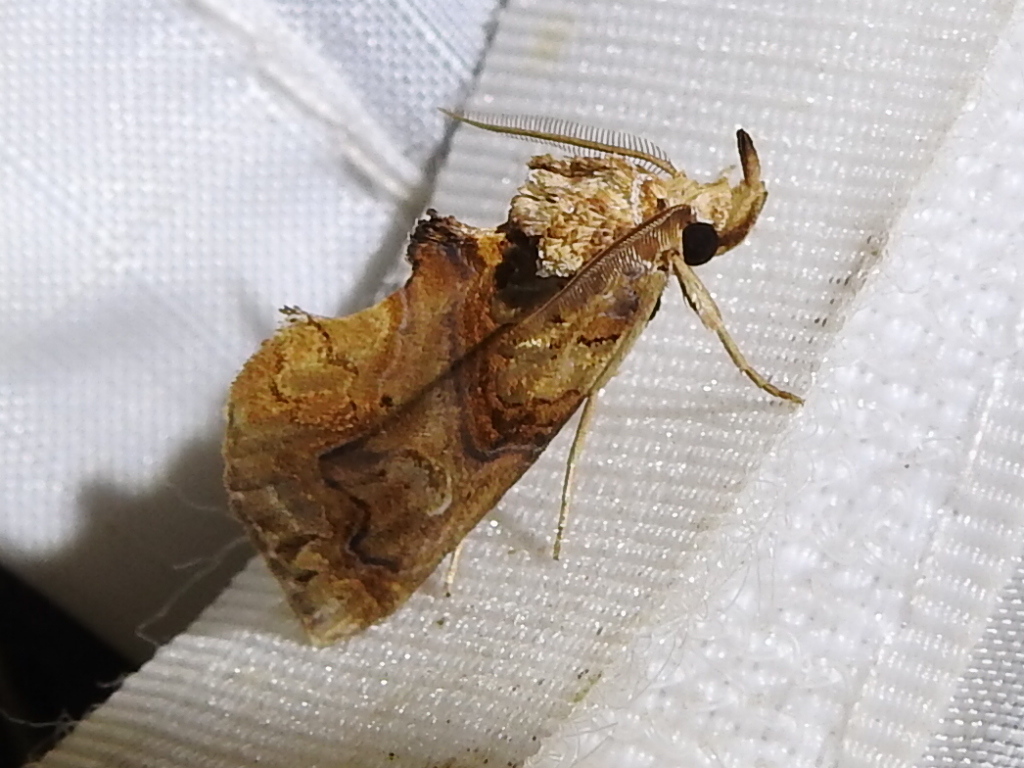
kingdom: Animalia
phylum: Arthropoda
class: Insecta
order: Lepidoptera
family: Erebidae
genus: Plusiodonta
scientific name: Plusiodonta compressipalpis
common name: Moonseed moth
